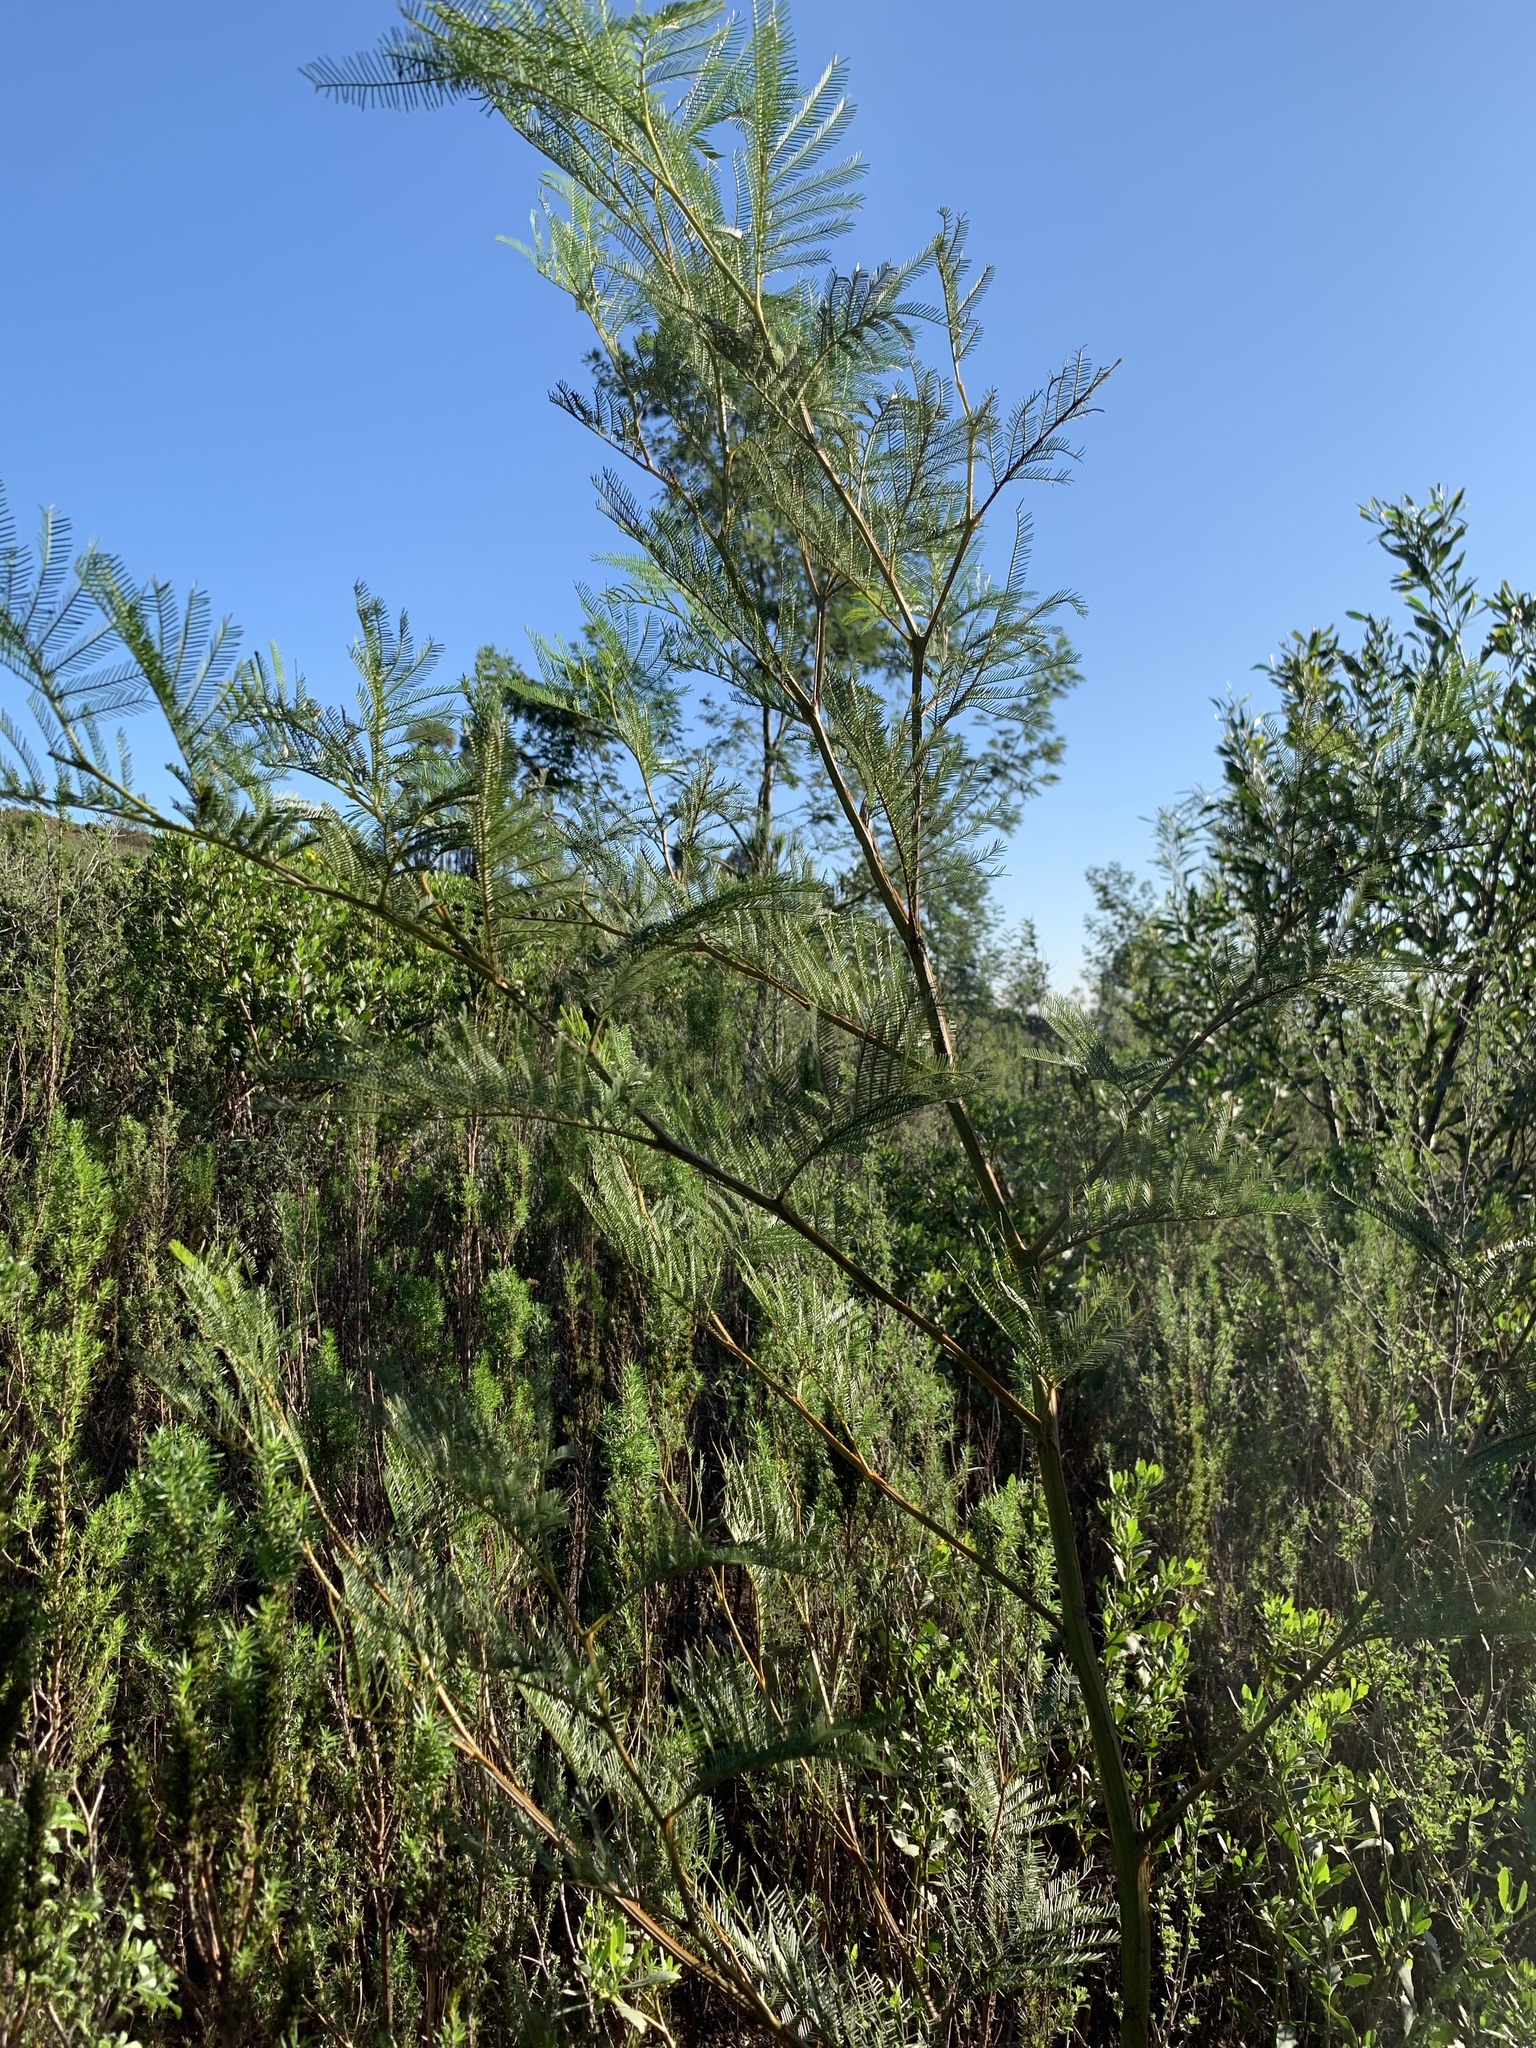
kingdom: Plantae
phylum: Tracheophyta
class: Magnoliopsida
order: Fabales
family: Fabaceae
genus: Acacia
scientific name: Acacia decurrens
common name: Green wattle
